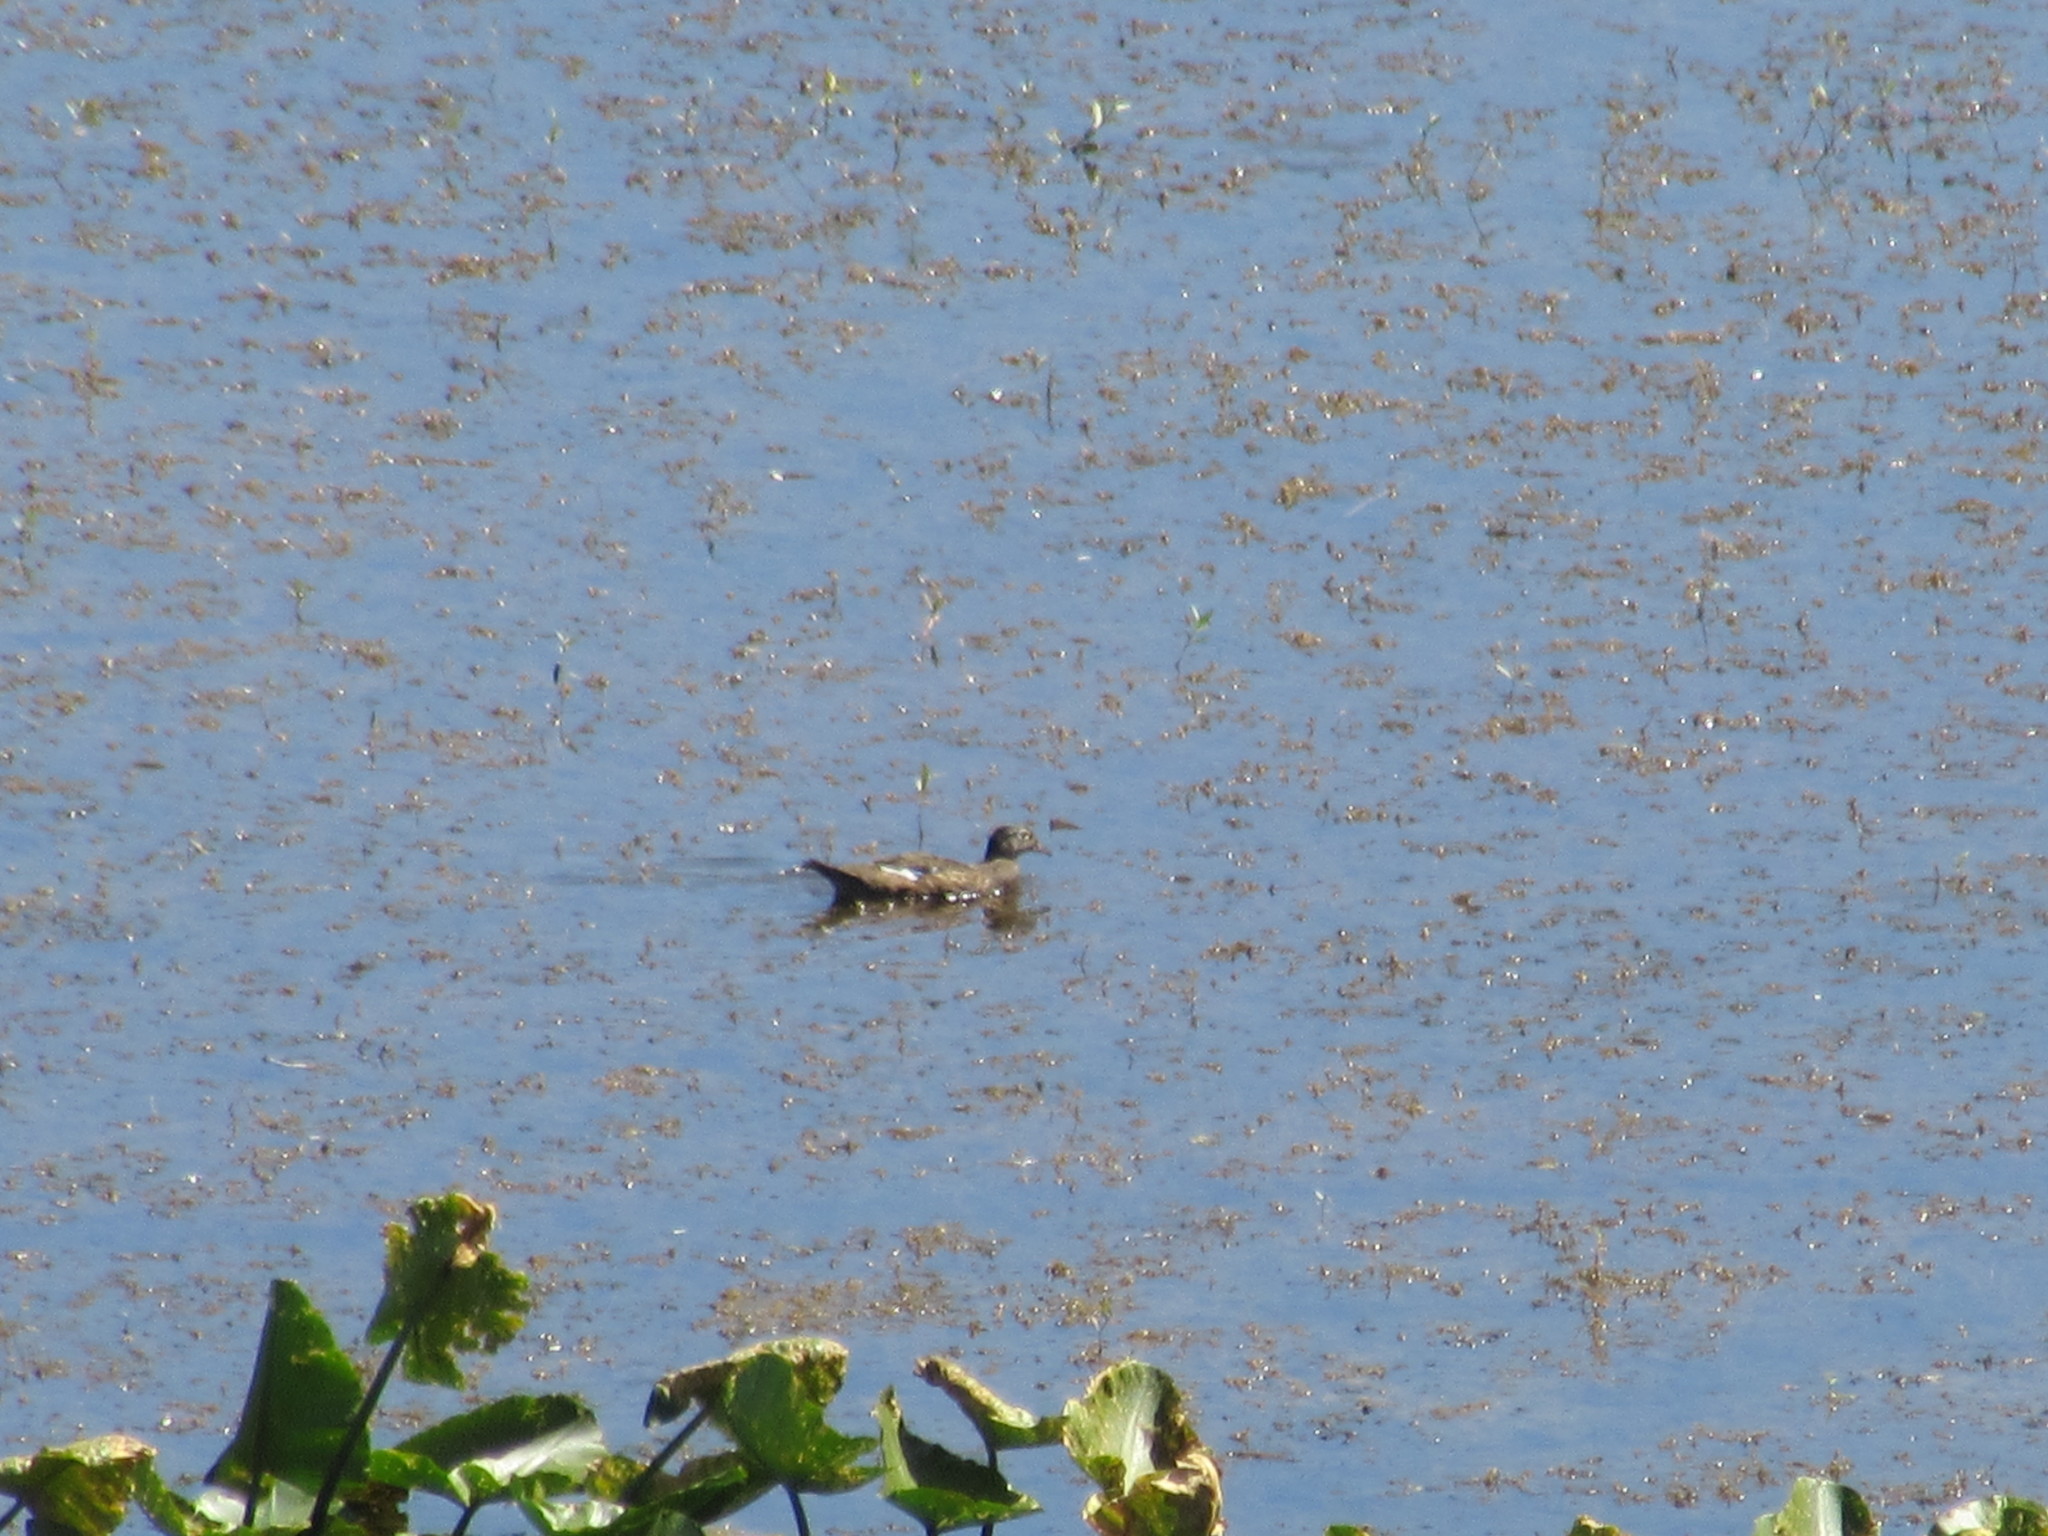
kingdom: Animalia
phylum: Chordata
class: Aves
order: Anseriformes
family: Anatidae
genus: Aix
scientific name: Aix sponsa
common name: Wood duck
